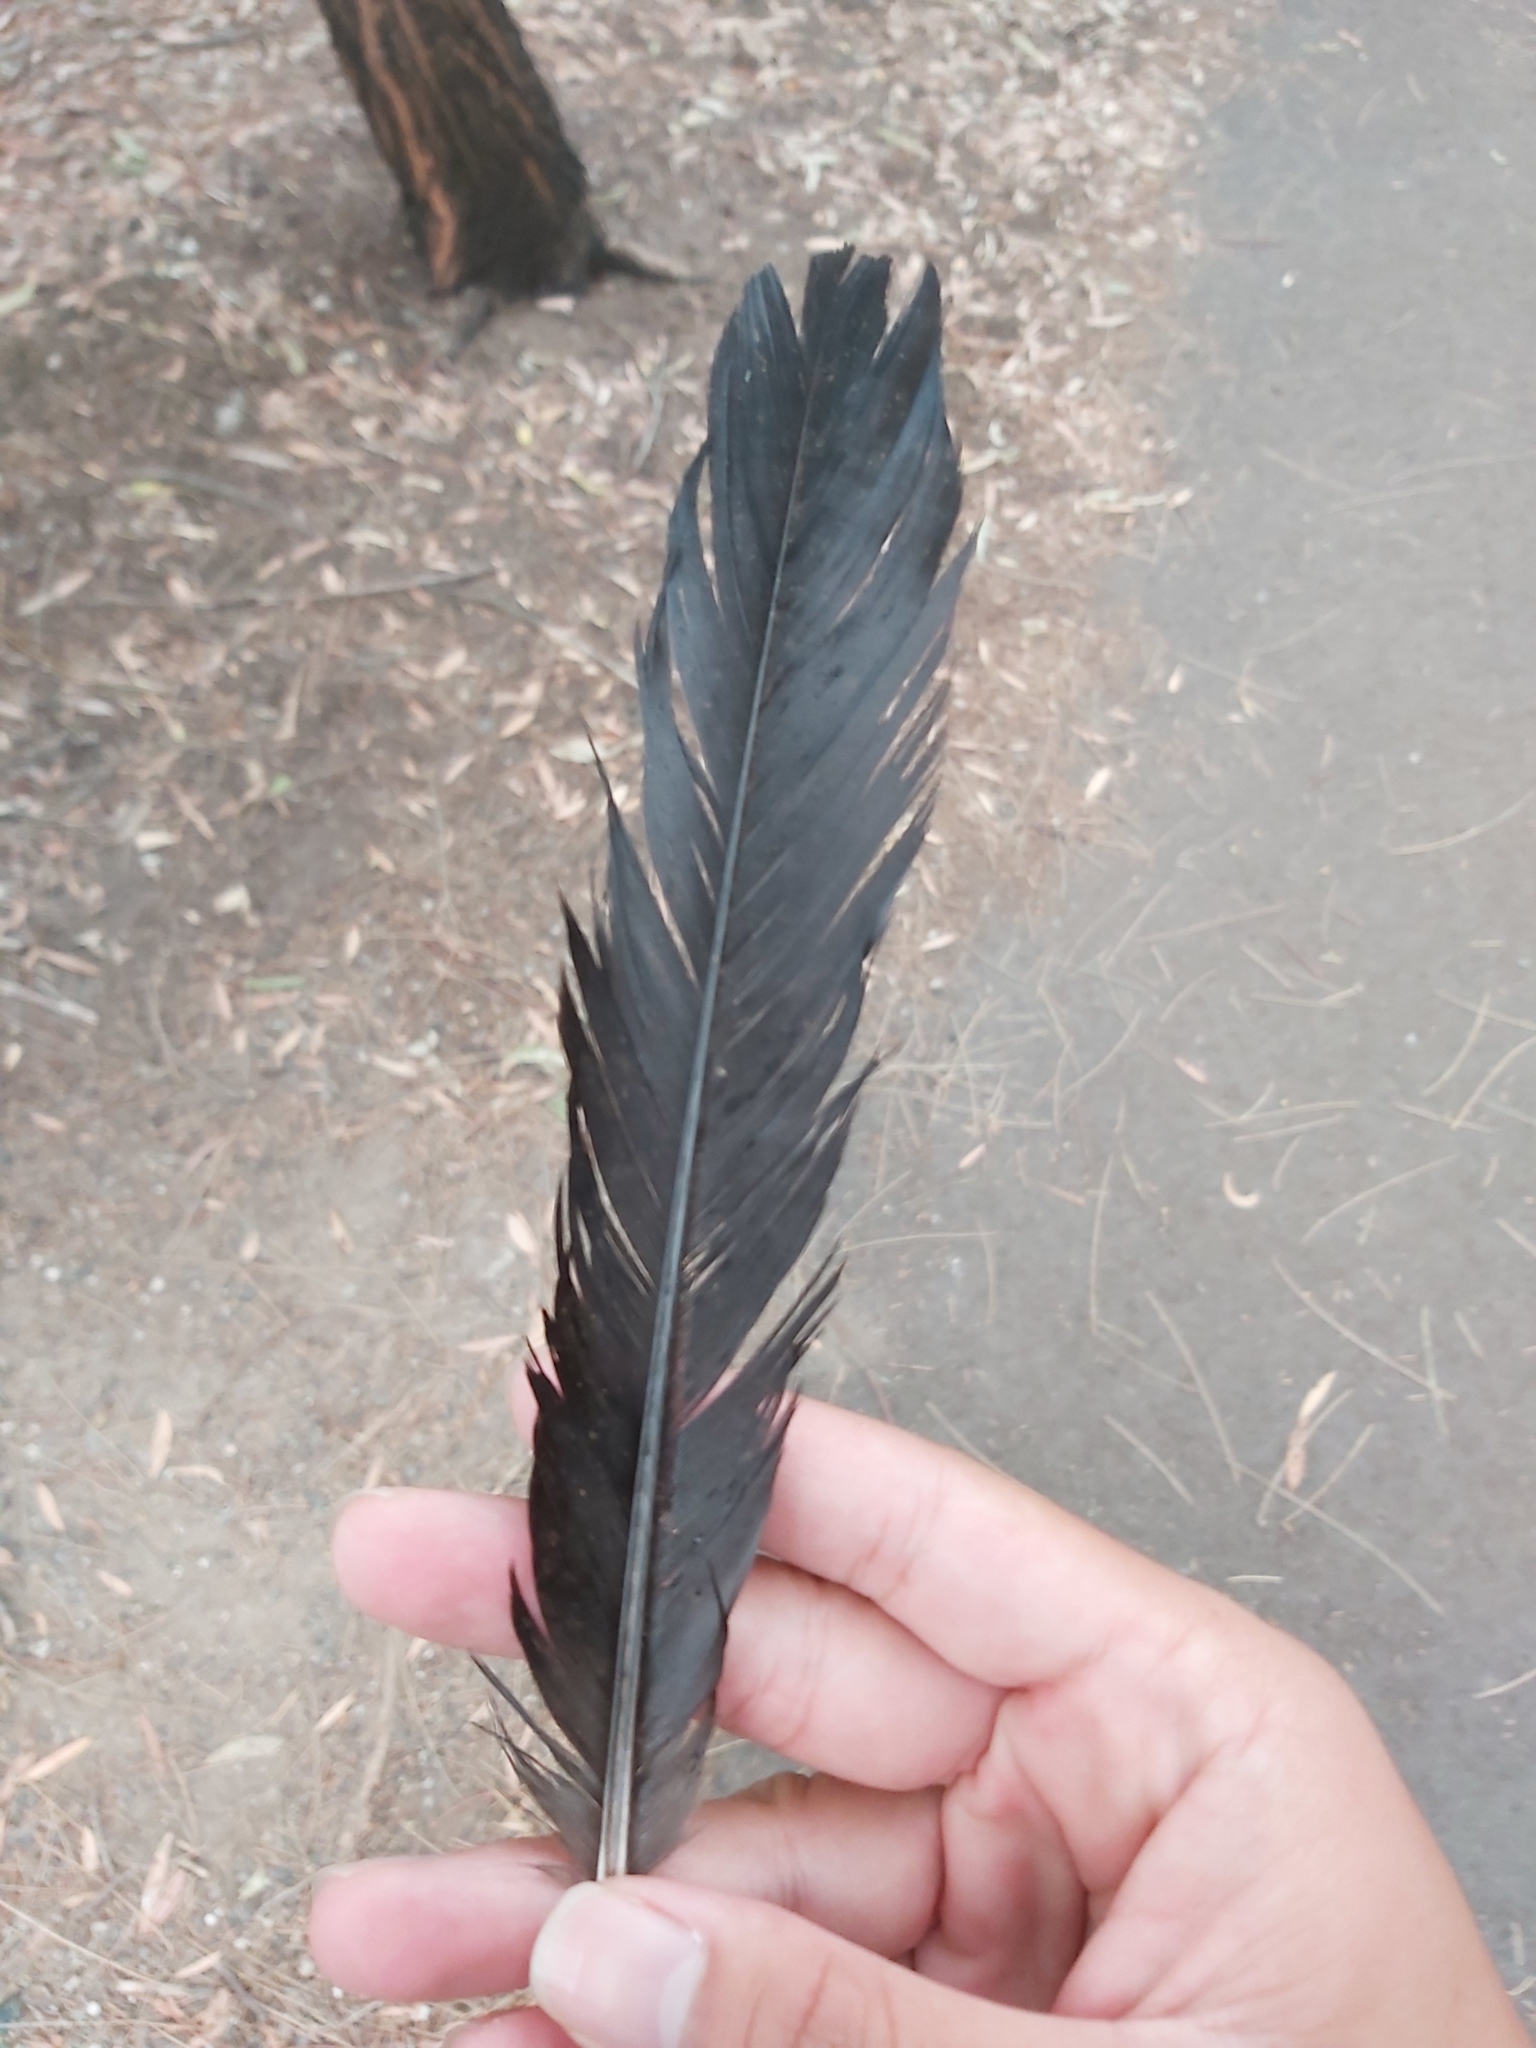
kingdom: Animalia
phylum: Chordata
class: Aves
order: Passeriformes
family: Corvidae
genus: Corvus
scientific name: Corvus coronoides
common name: Australian raven
